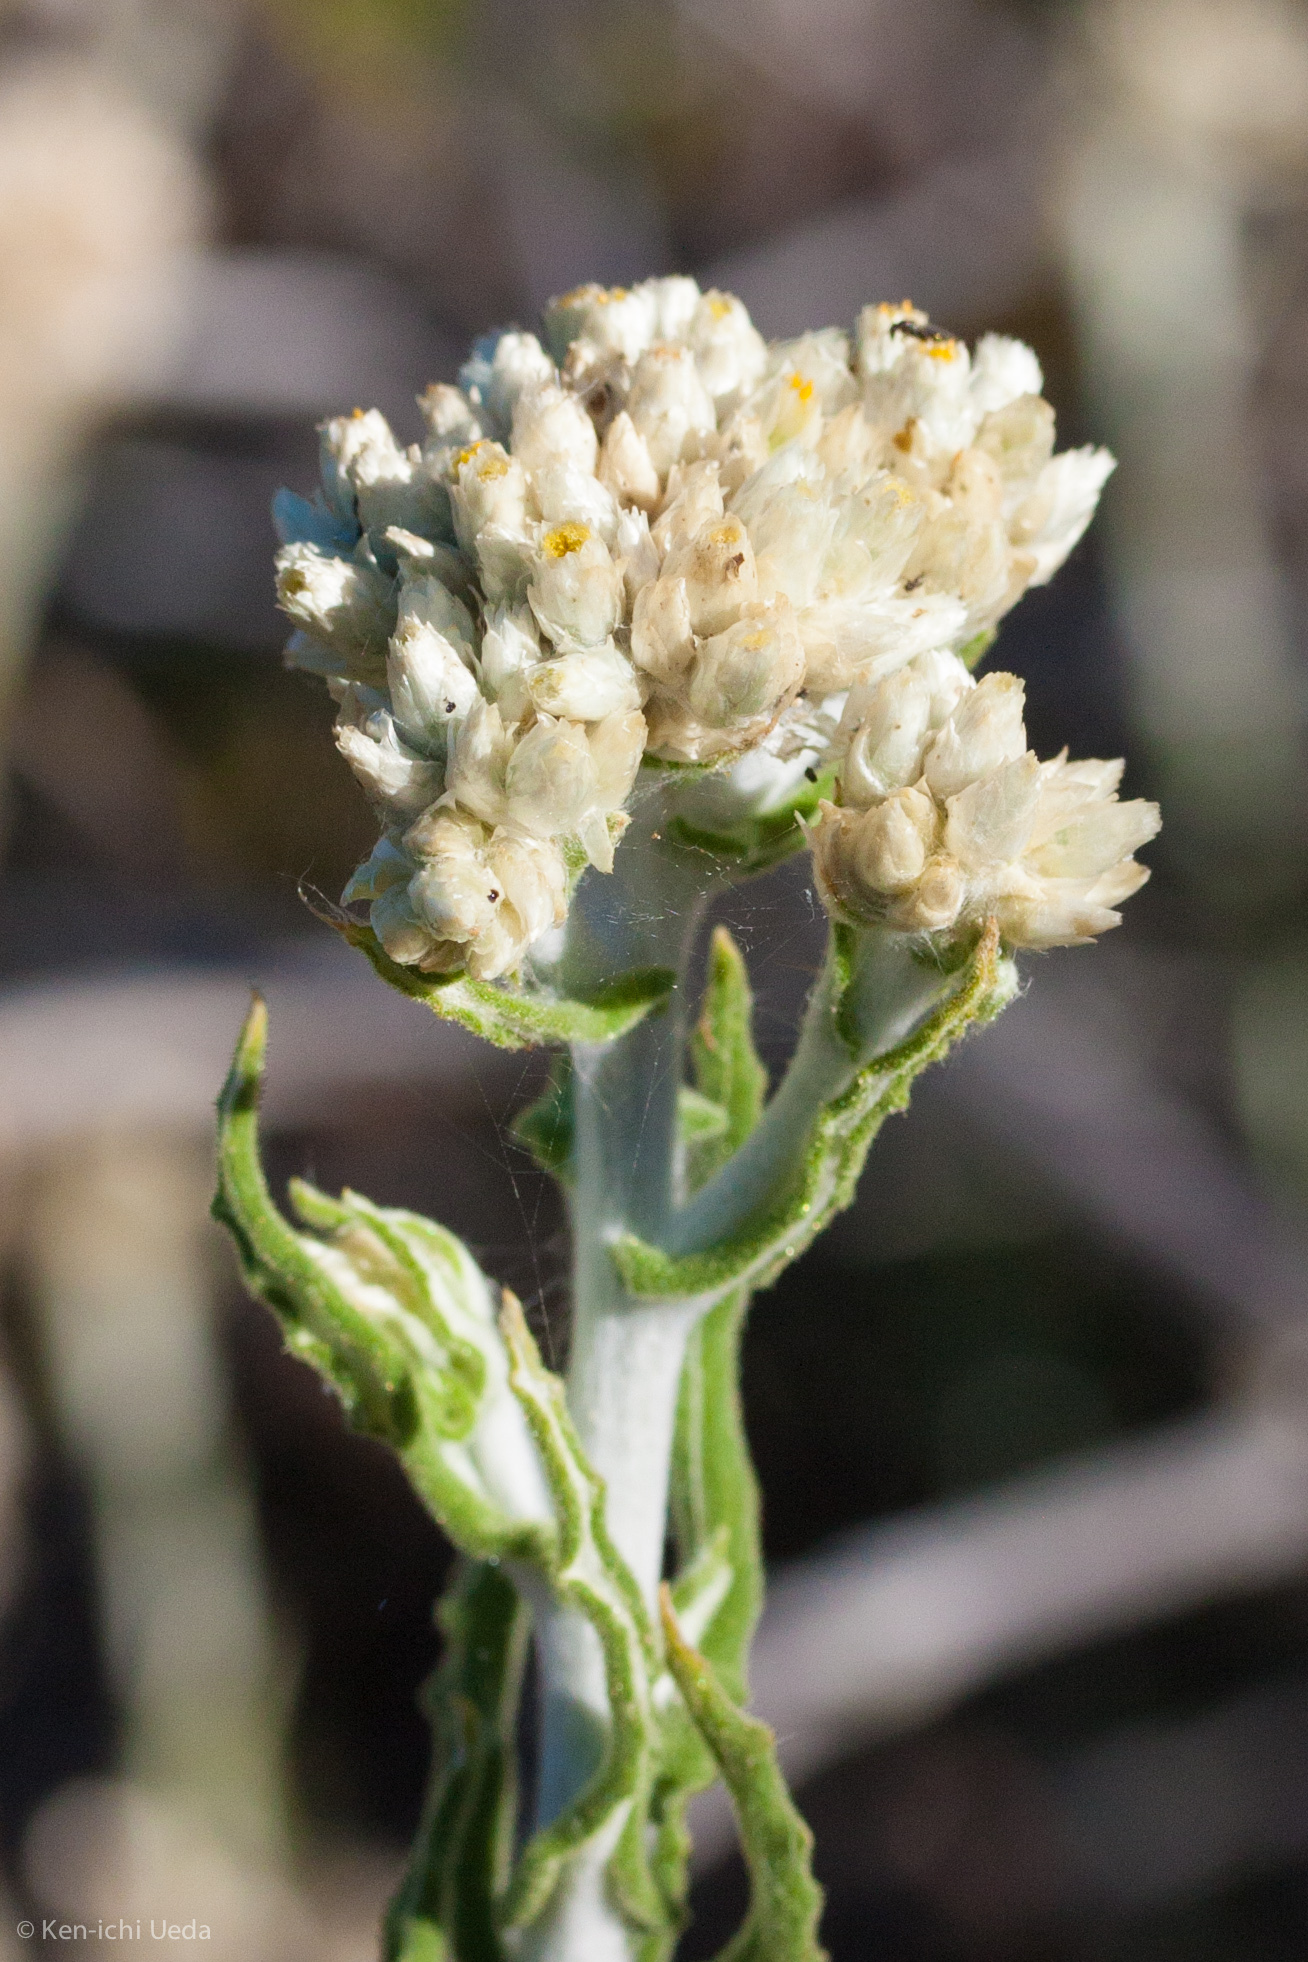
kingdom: Plantae
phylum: Tracheophyta
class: Magnoliopsida
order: Asterales
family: Asteraceae
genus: Pseudognaphalium
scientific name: Pseudognaphalium biolettii
